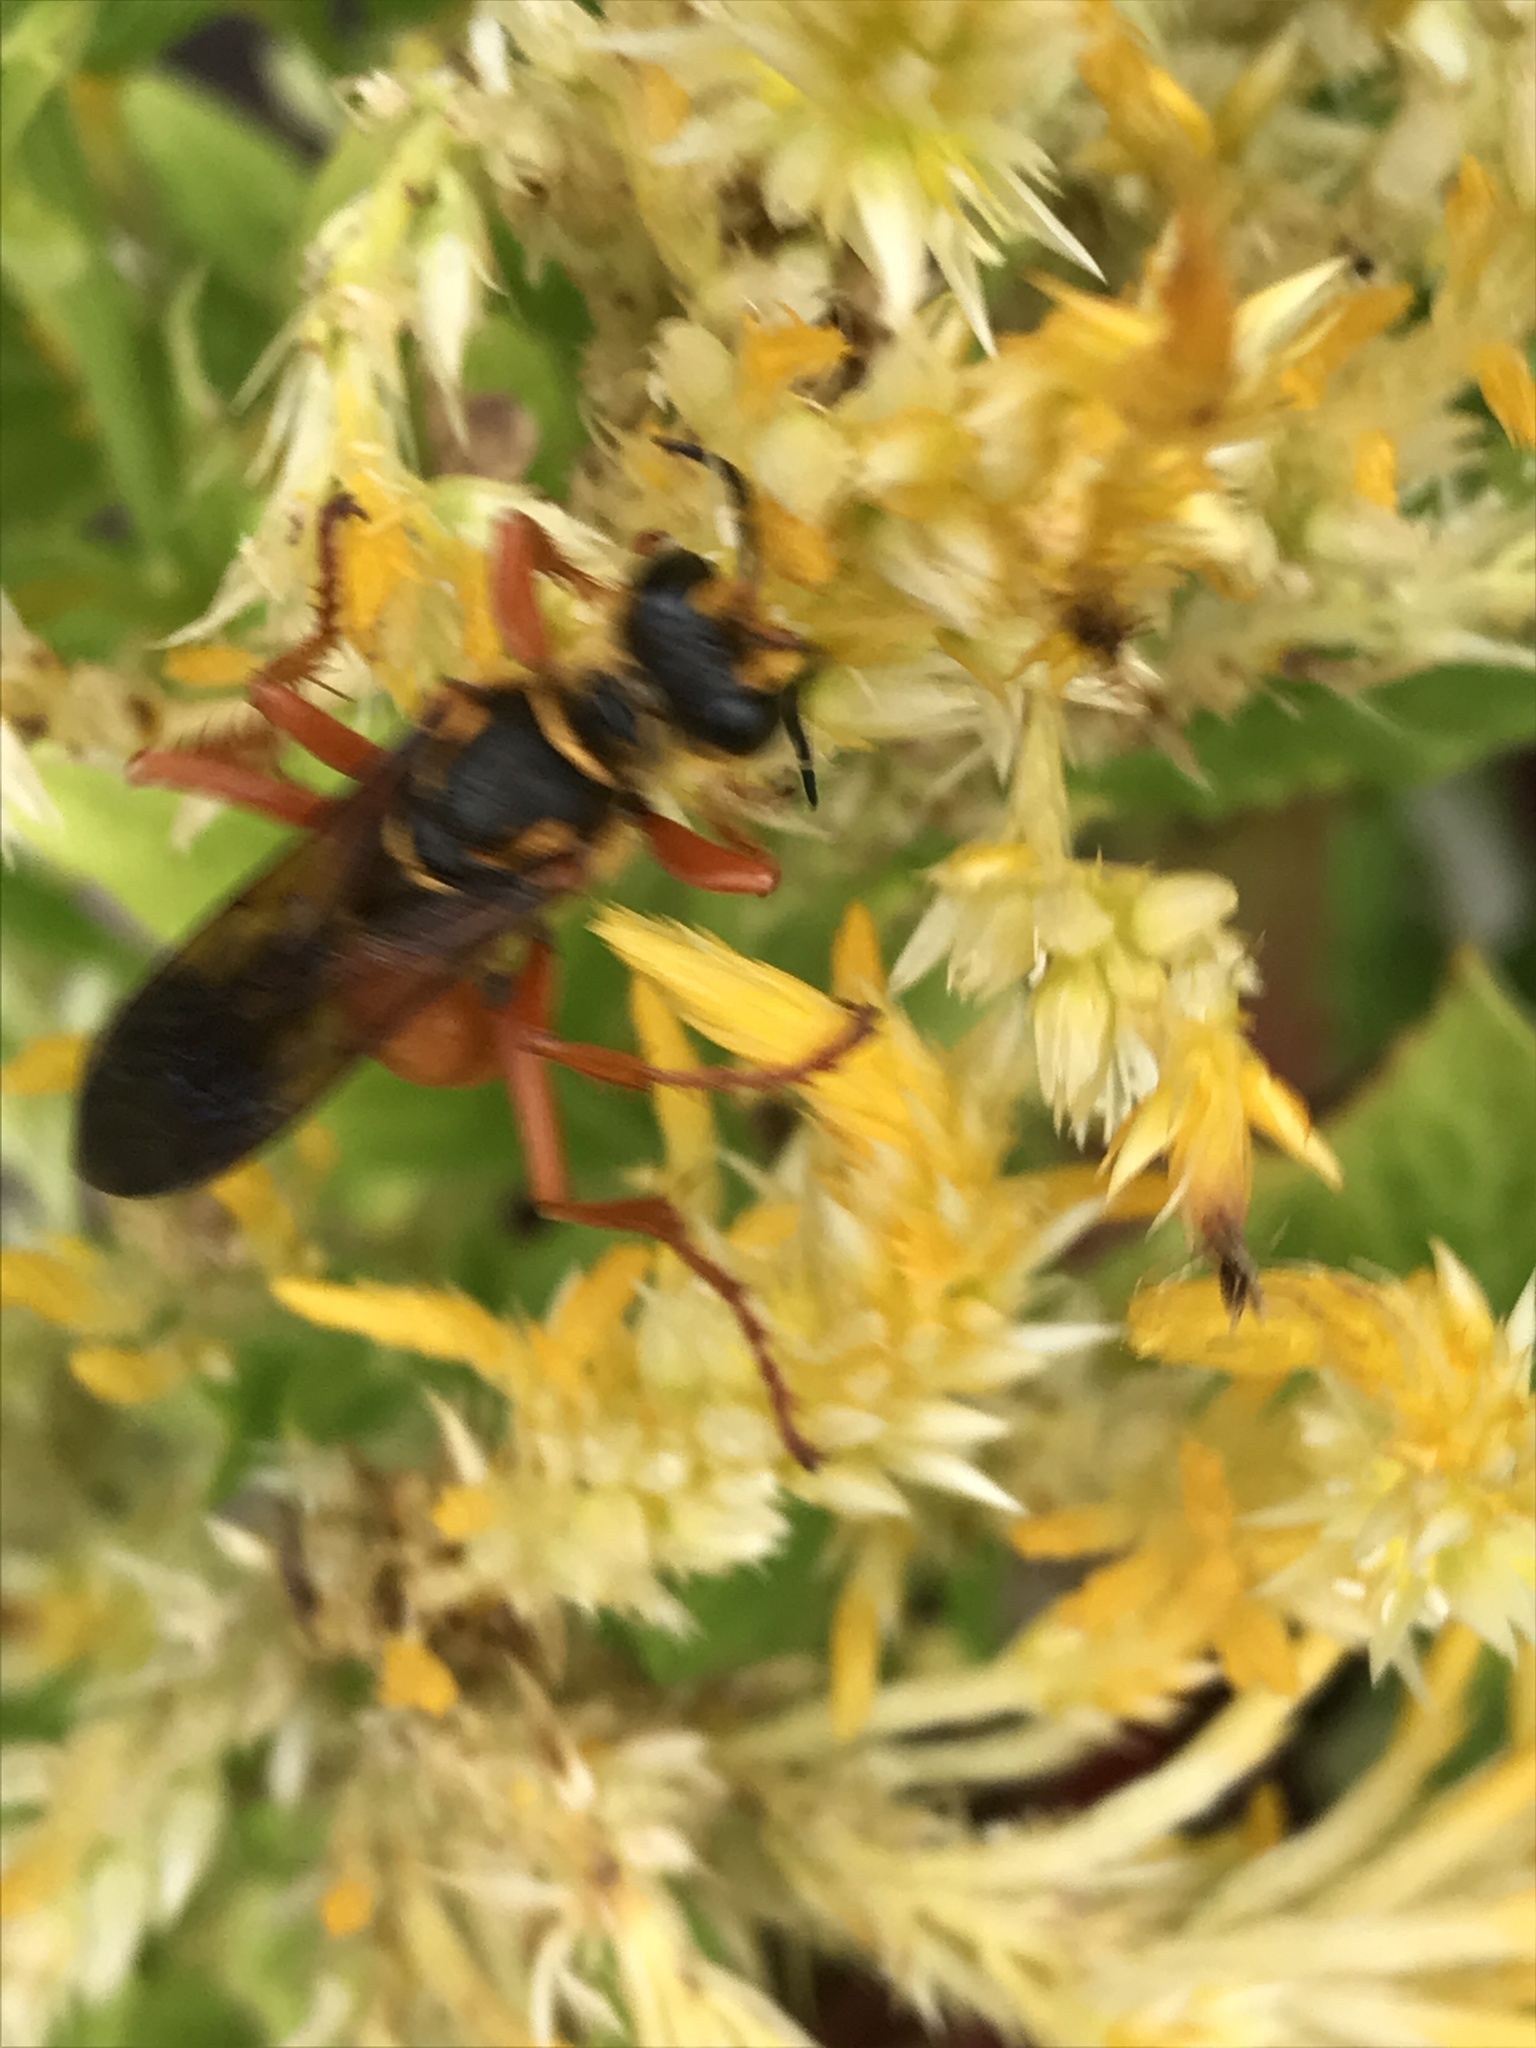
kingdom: Animalia
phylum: Arthropoda
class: Insecta
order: Hymenoptera
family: Sphecidae
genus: Sphex
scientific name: Sphex ichneumoneus
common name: Great golden digger wasp
